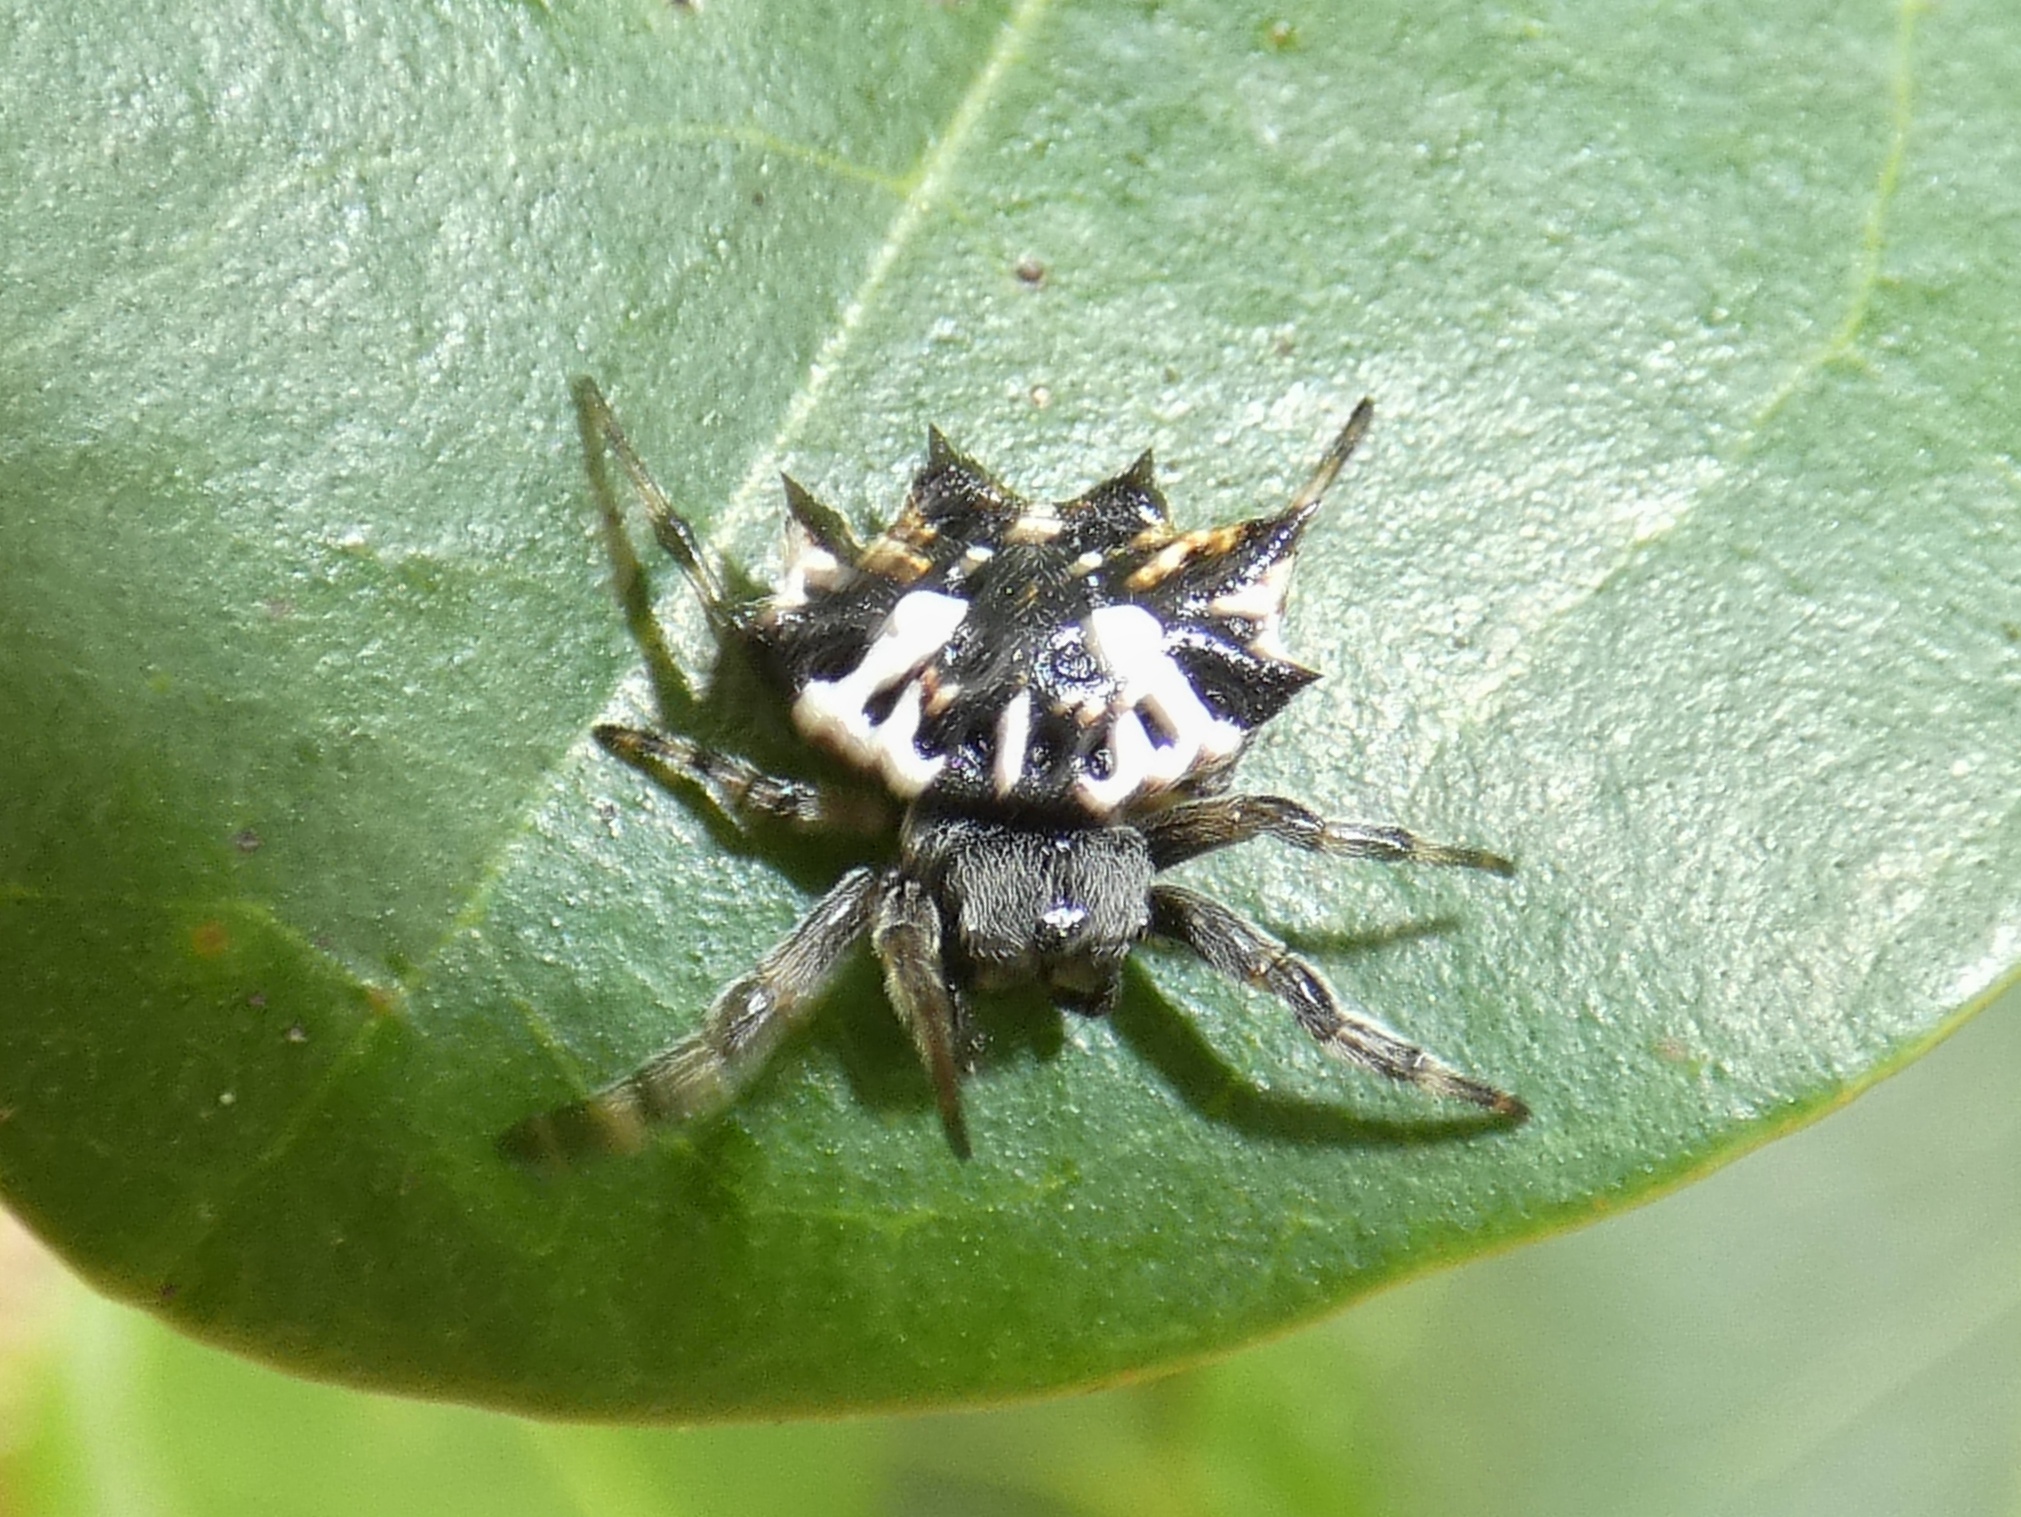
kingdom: Animalia
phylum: Arthropoda
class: Arachnida
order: Araneae
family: Araneidae
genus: Gasteracantha
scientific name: Gasteracantha sacerdotalis
